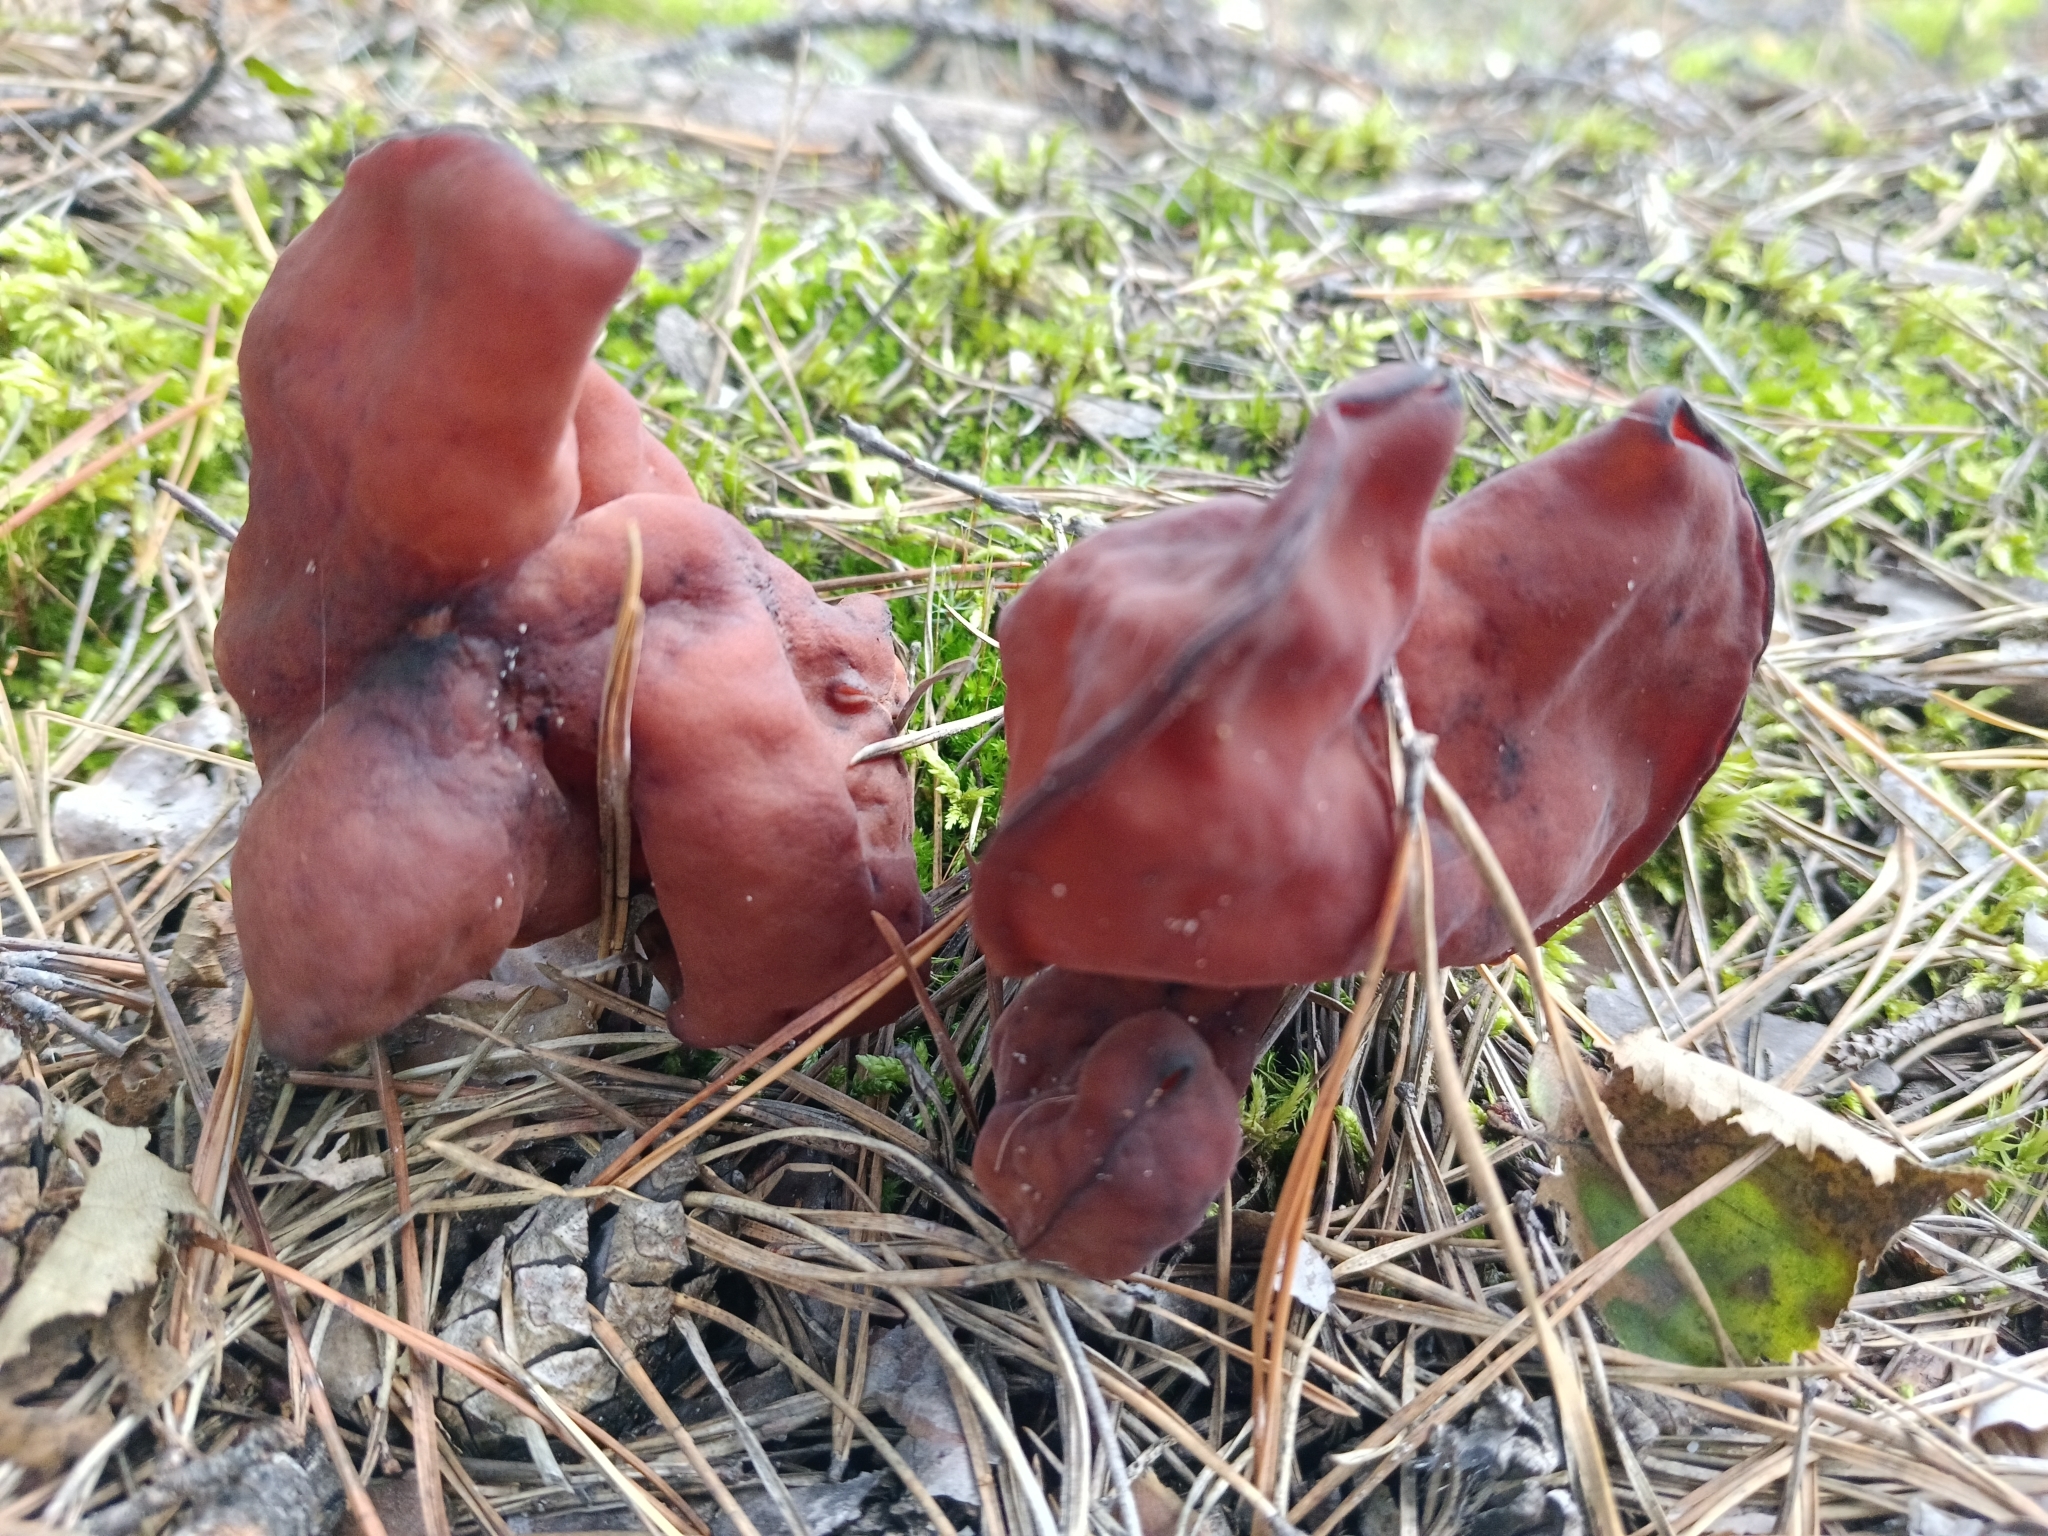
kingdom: Fungi
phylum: Ascomycota
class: Pezizomycetes
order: Pezizales
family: Discinaceae
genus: Gyromitra
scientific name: Gyromitra infula
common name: Pouched false morel
